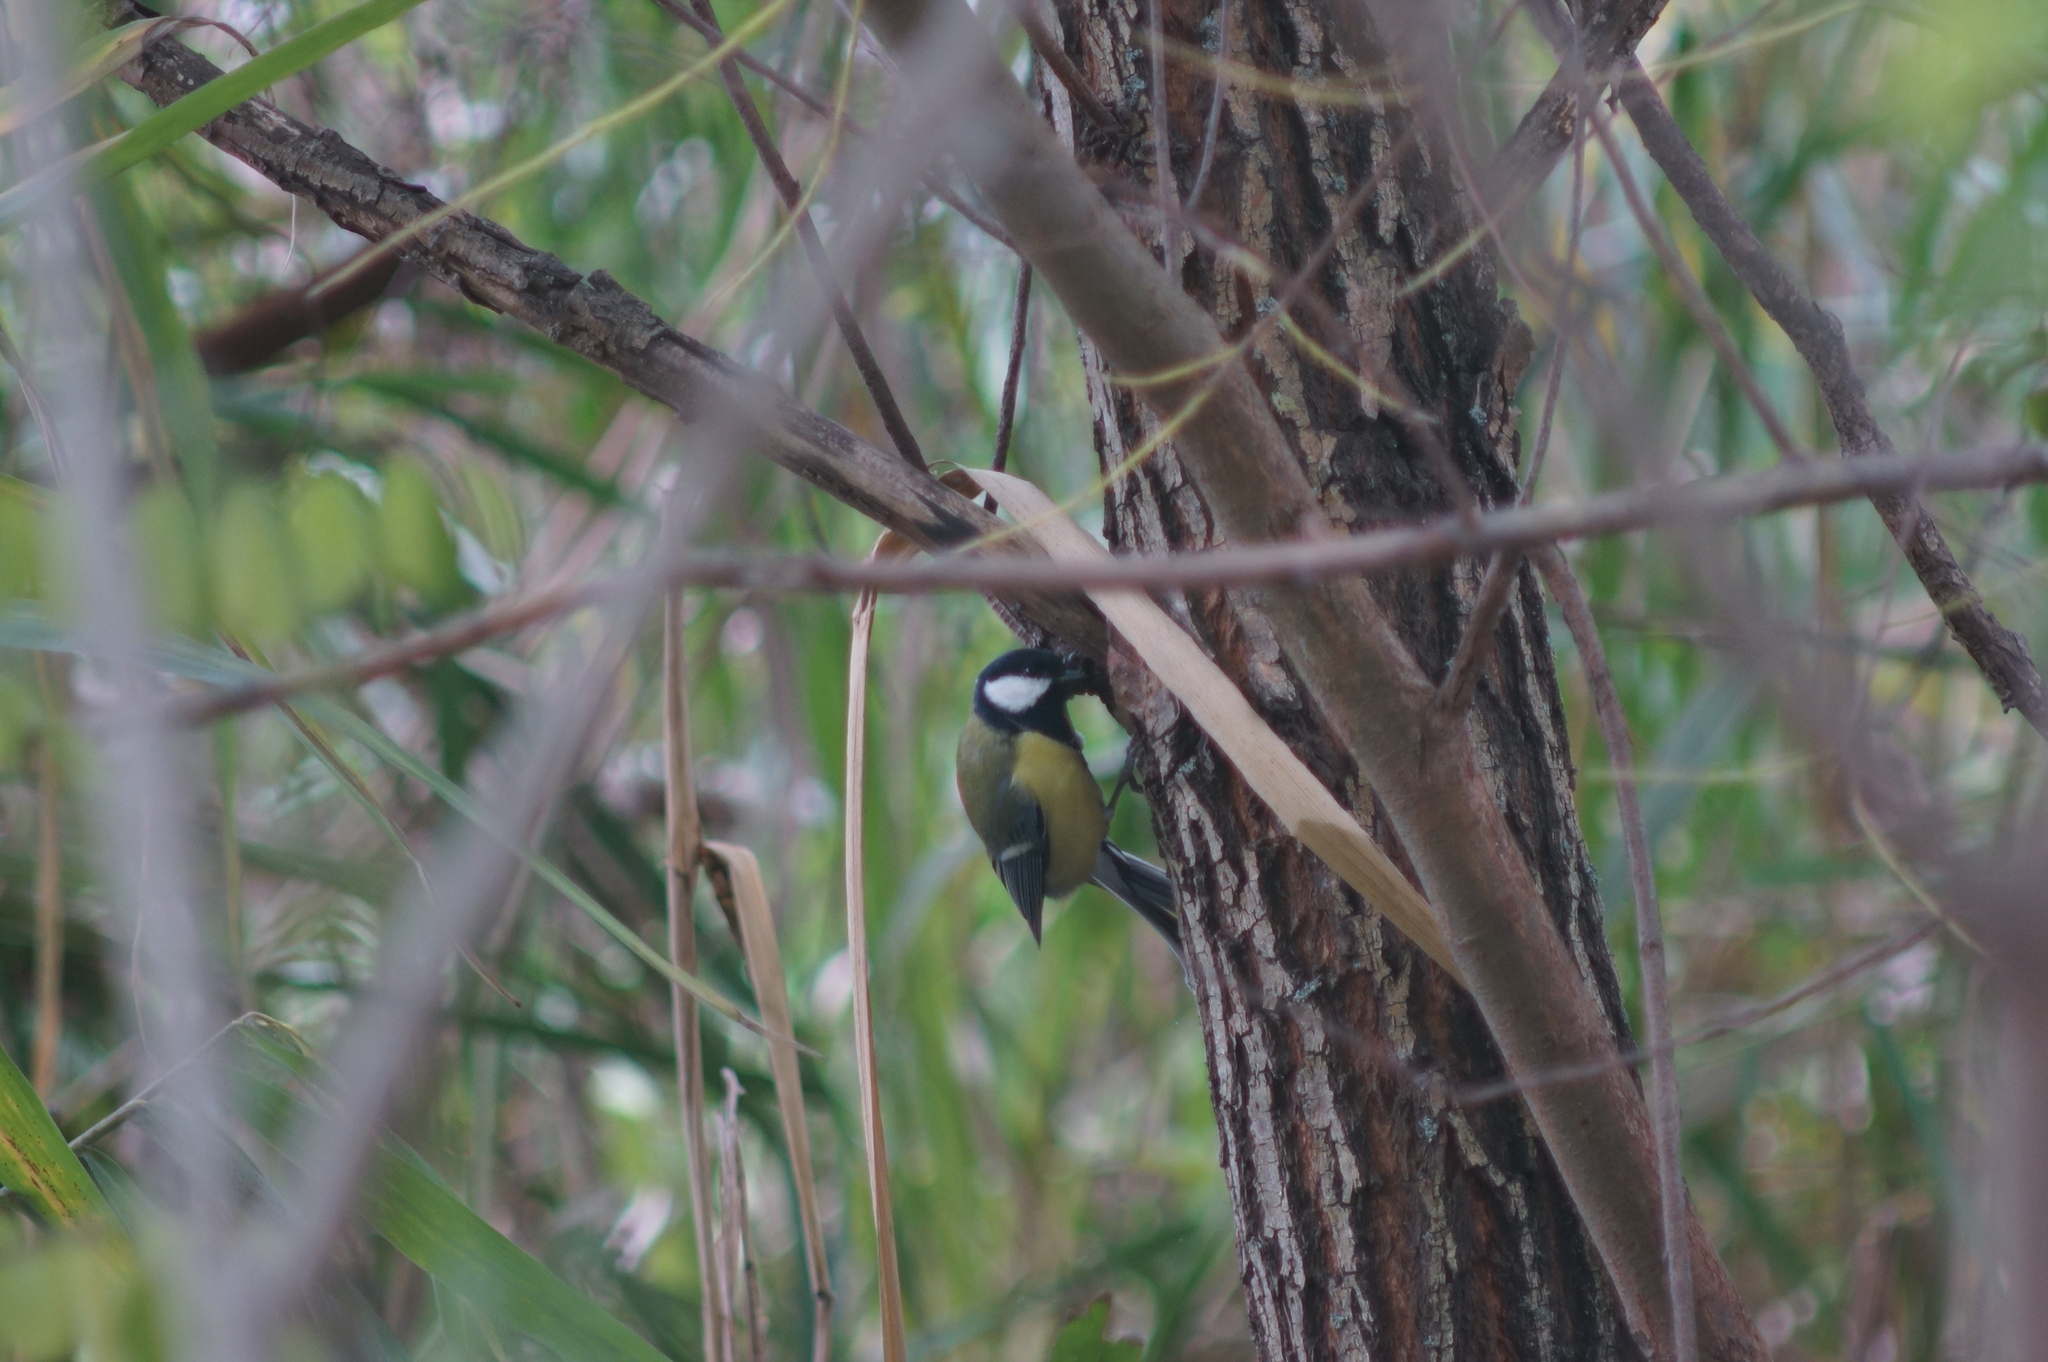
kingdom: Animalia
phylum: Chordata
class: Aves
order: Passeriformes
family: Paridae
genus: Parus
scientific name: Parus major
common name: Great tit
